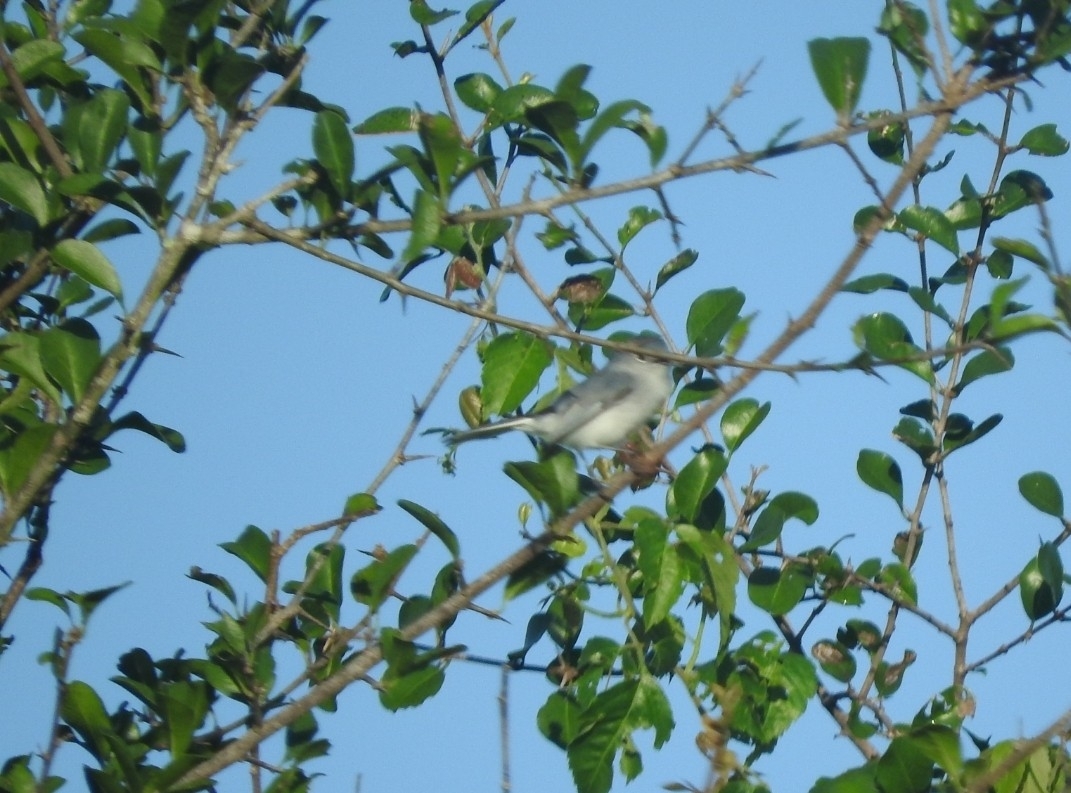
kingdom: Animalia
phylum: Chordata
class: Aves
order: Passeriformes
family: Polioptilidae
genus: Polioptila
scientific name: Polioptila caerulea
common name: Blue-gray gnatcatcher
